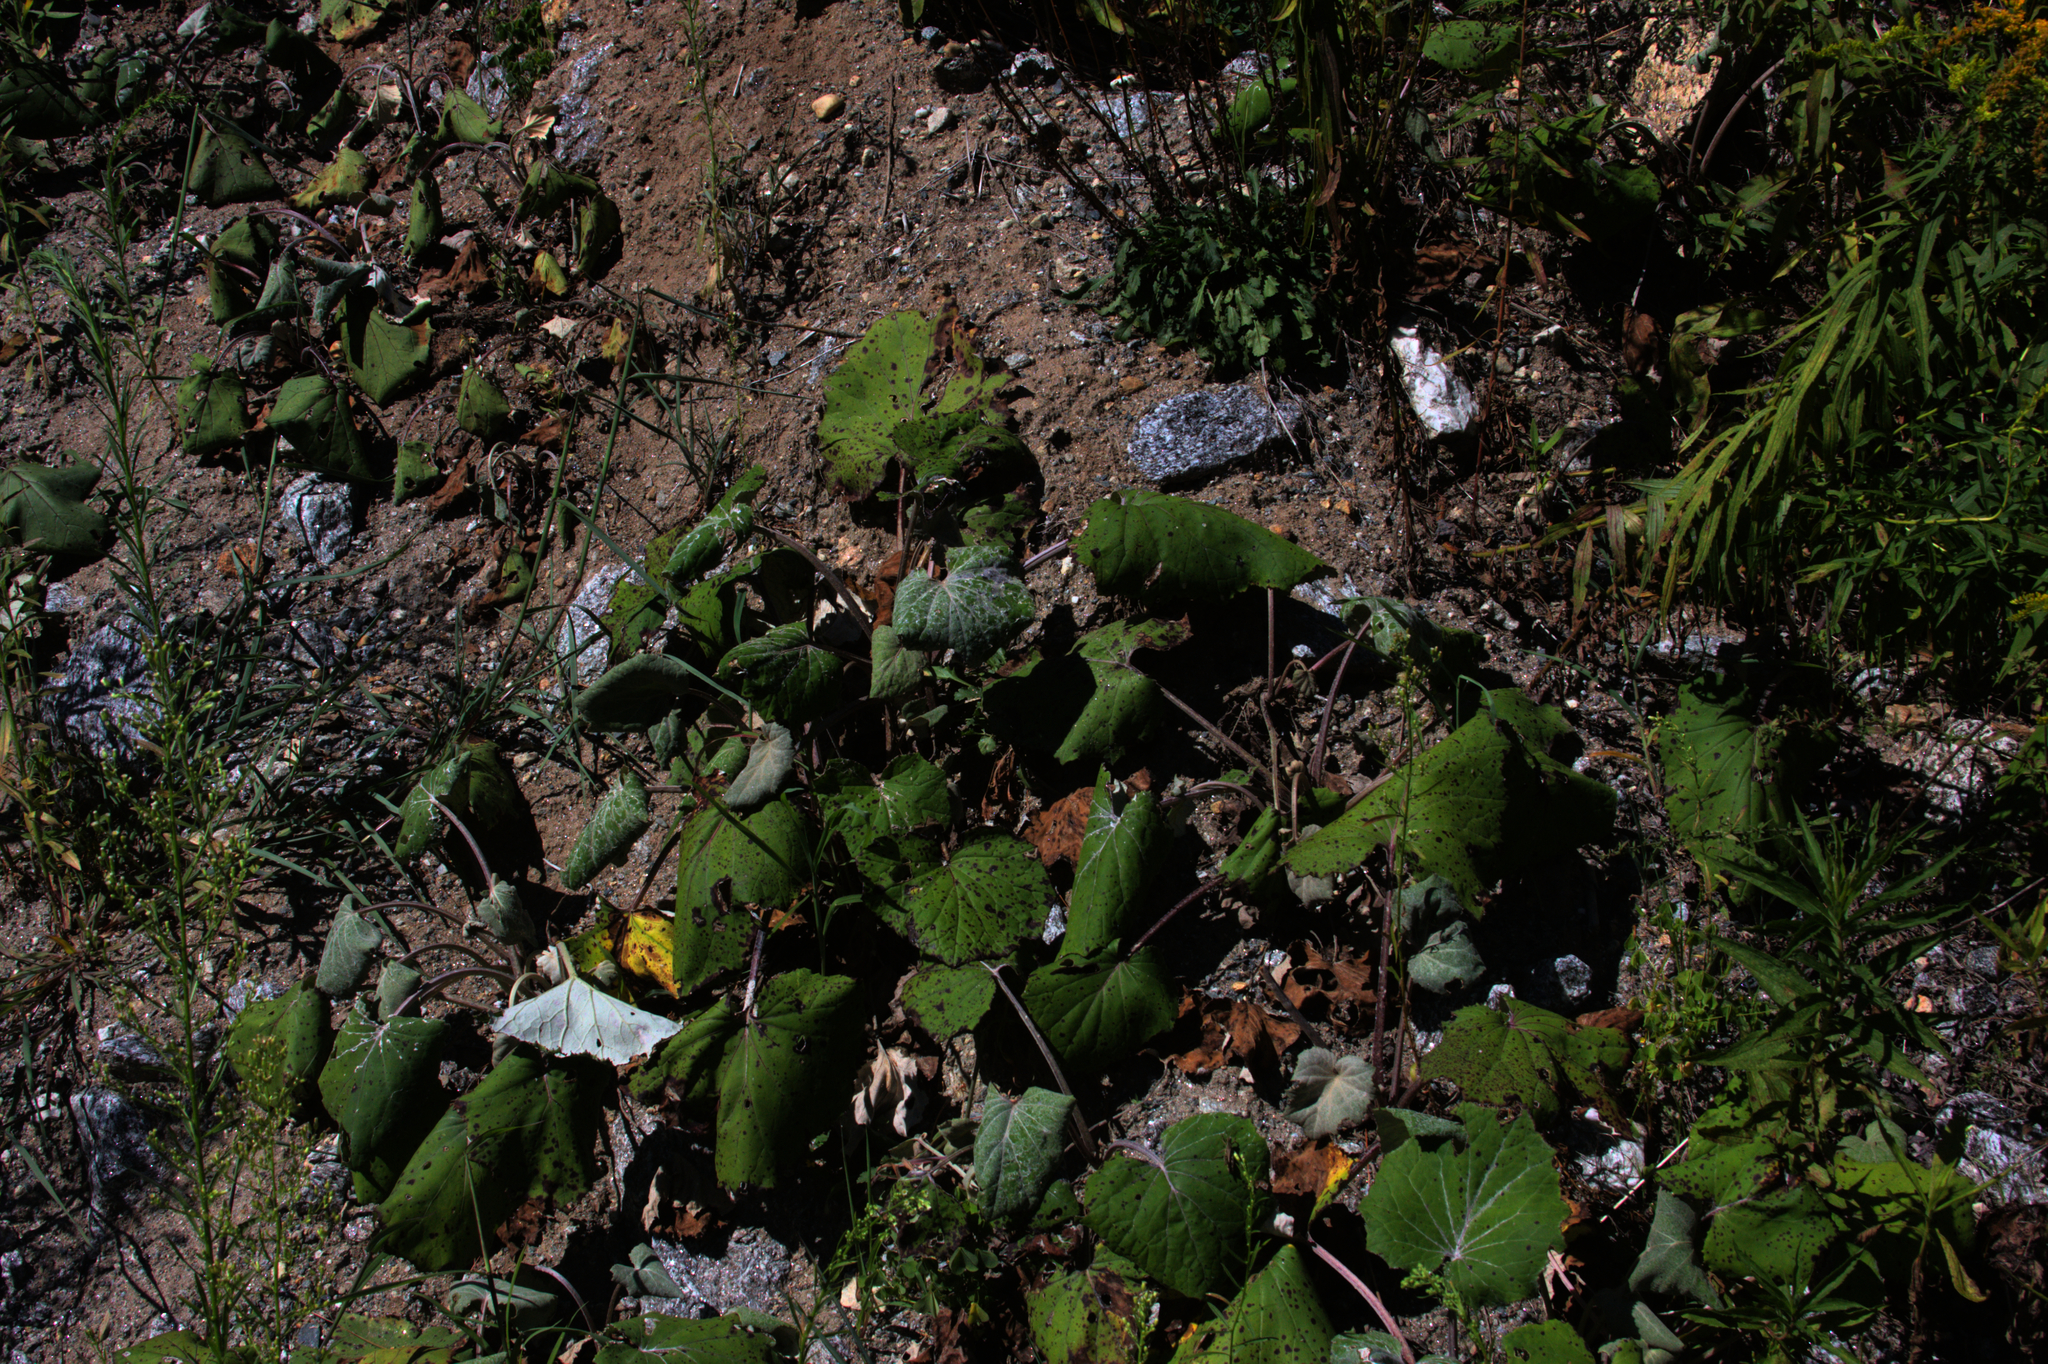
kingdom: Plantae
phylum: Tracheophyta
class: Magnoliopsida
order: Asterales
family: Asteraceae
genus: Tussilago
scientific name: Tussilago farfara
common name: Coltsfoot
